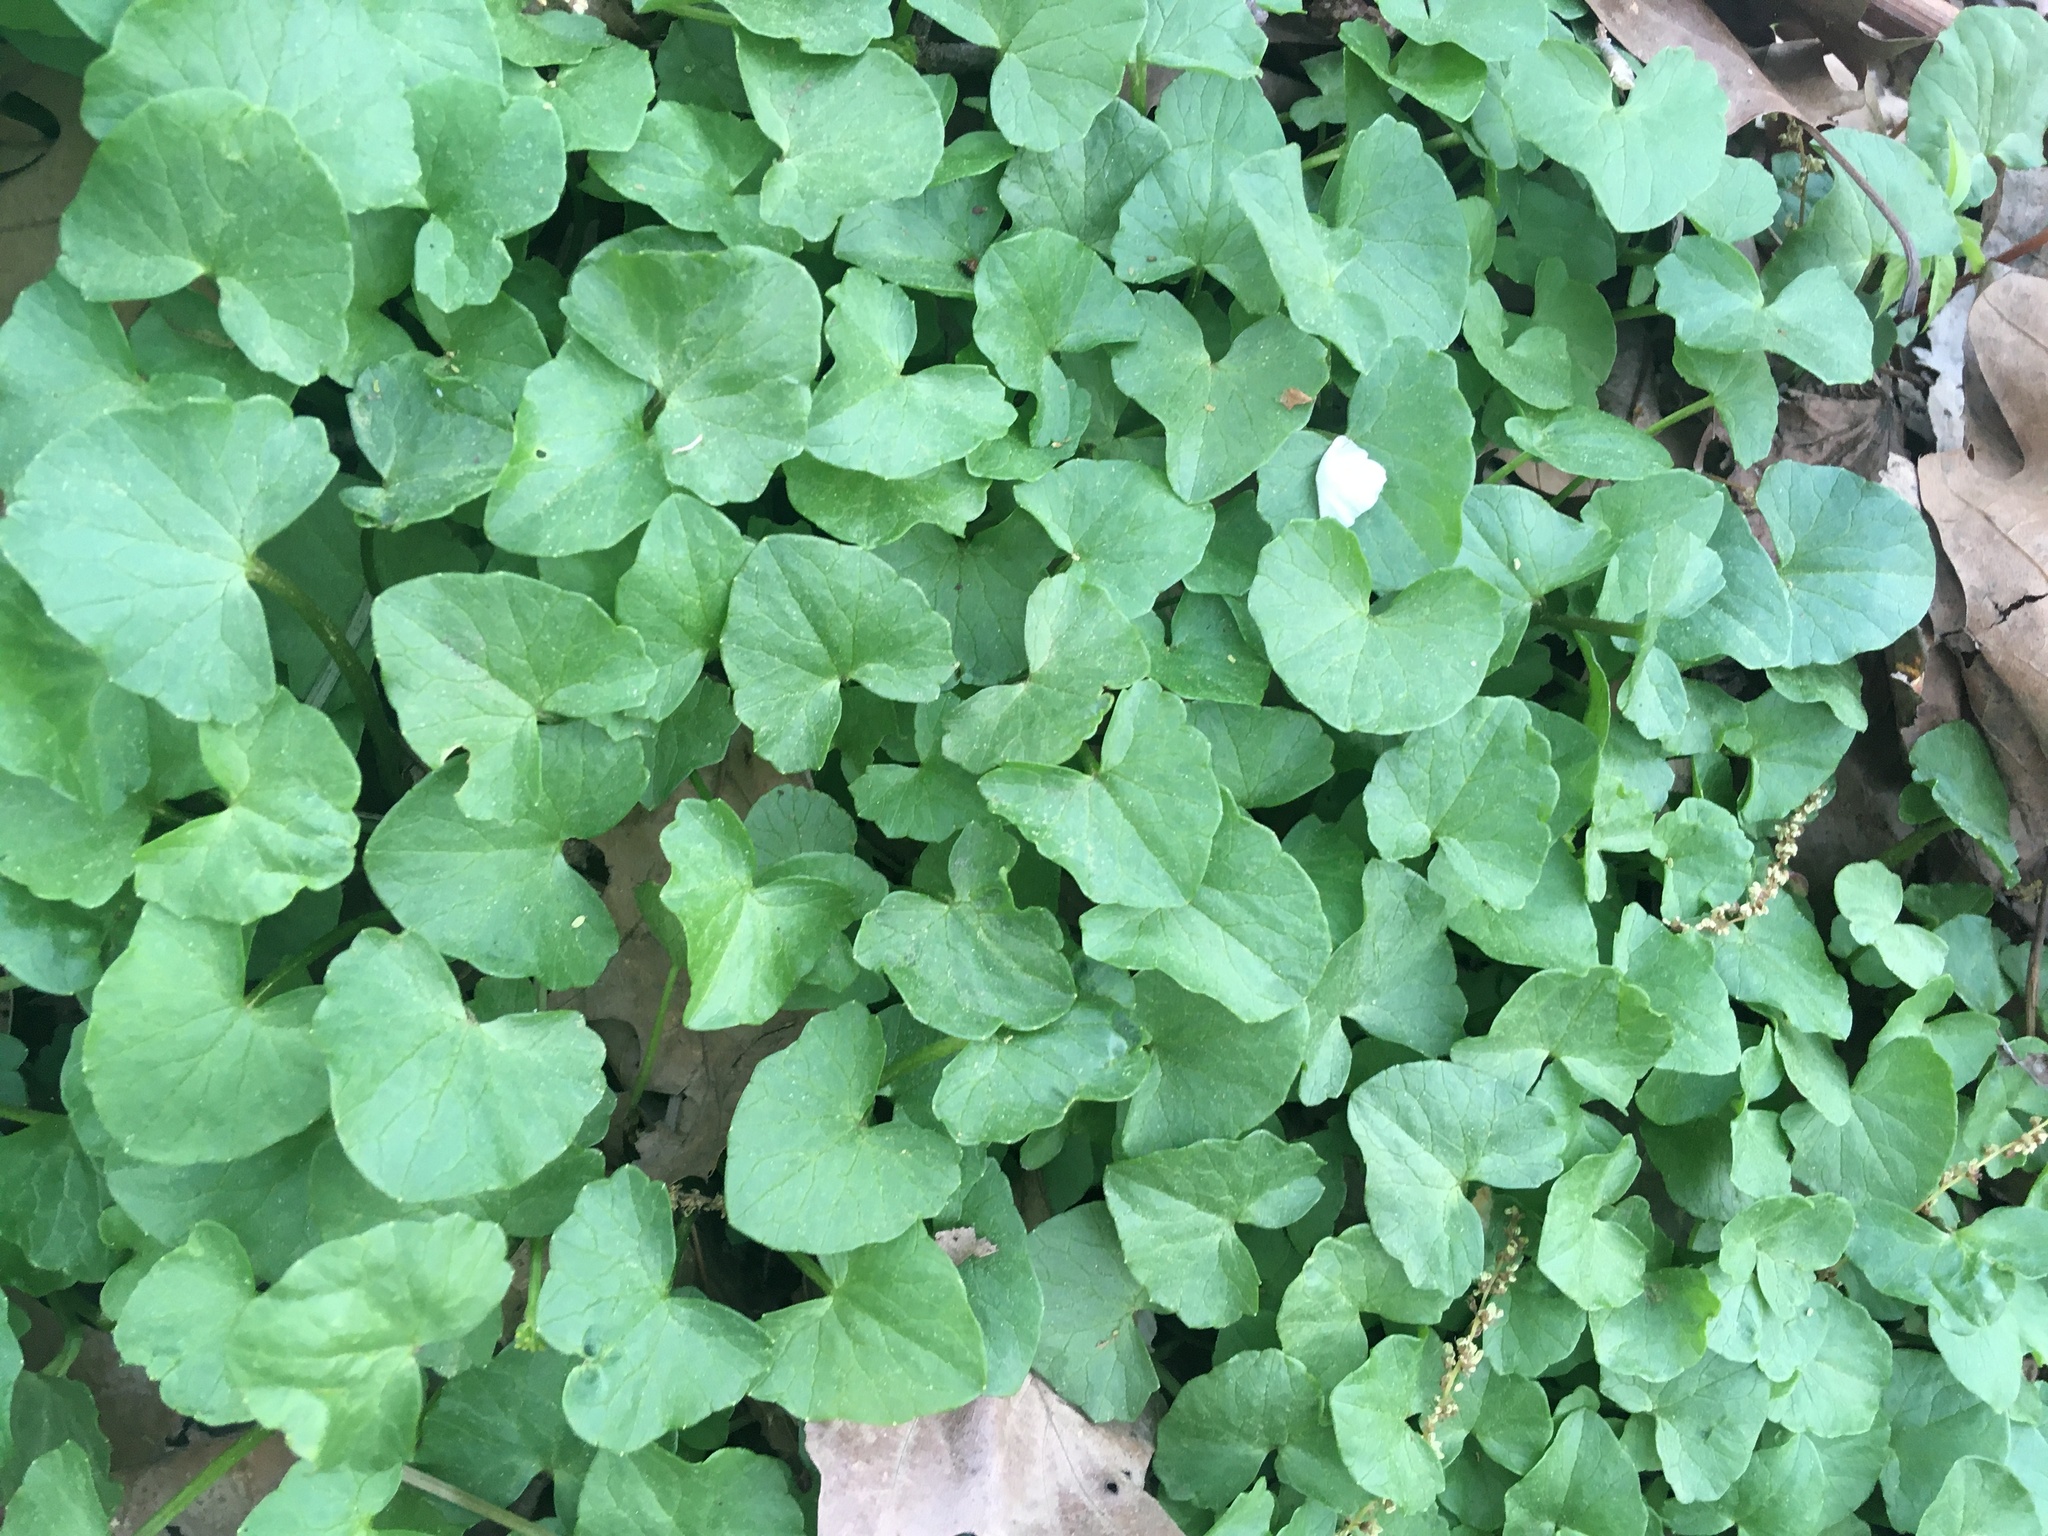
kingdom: Plantae
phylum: Tracheophyta
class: Magnoliopsida
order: Ranunculales
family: Ranunculaceae
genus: Ficaria
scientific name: Ficaria verna
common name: Lesser celandine
